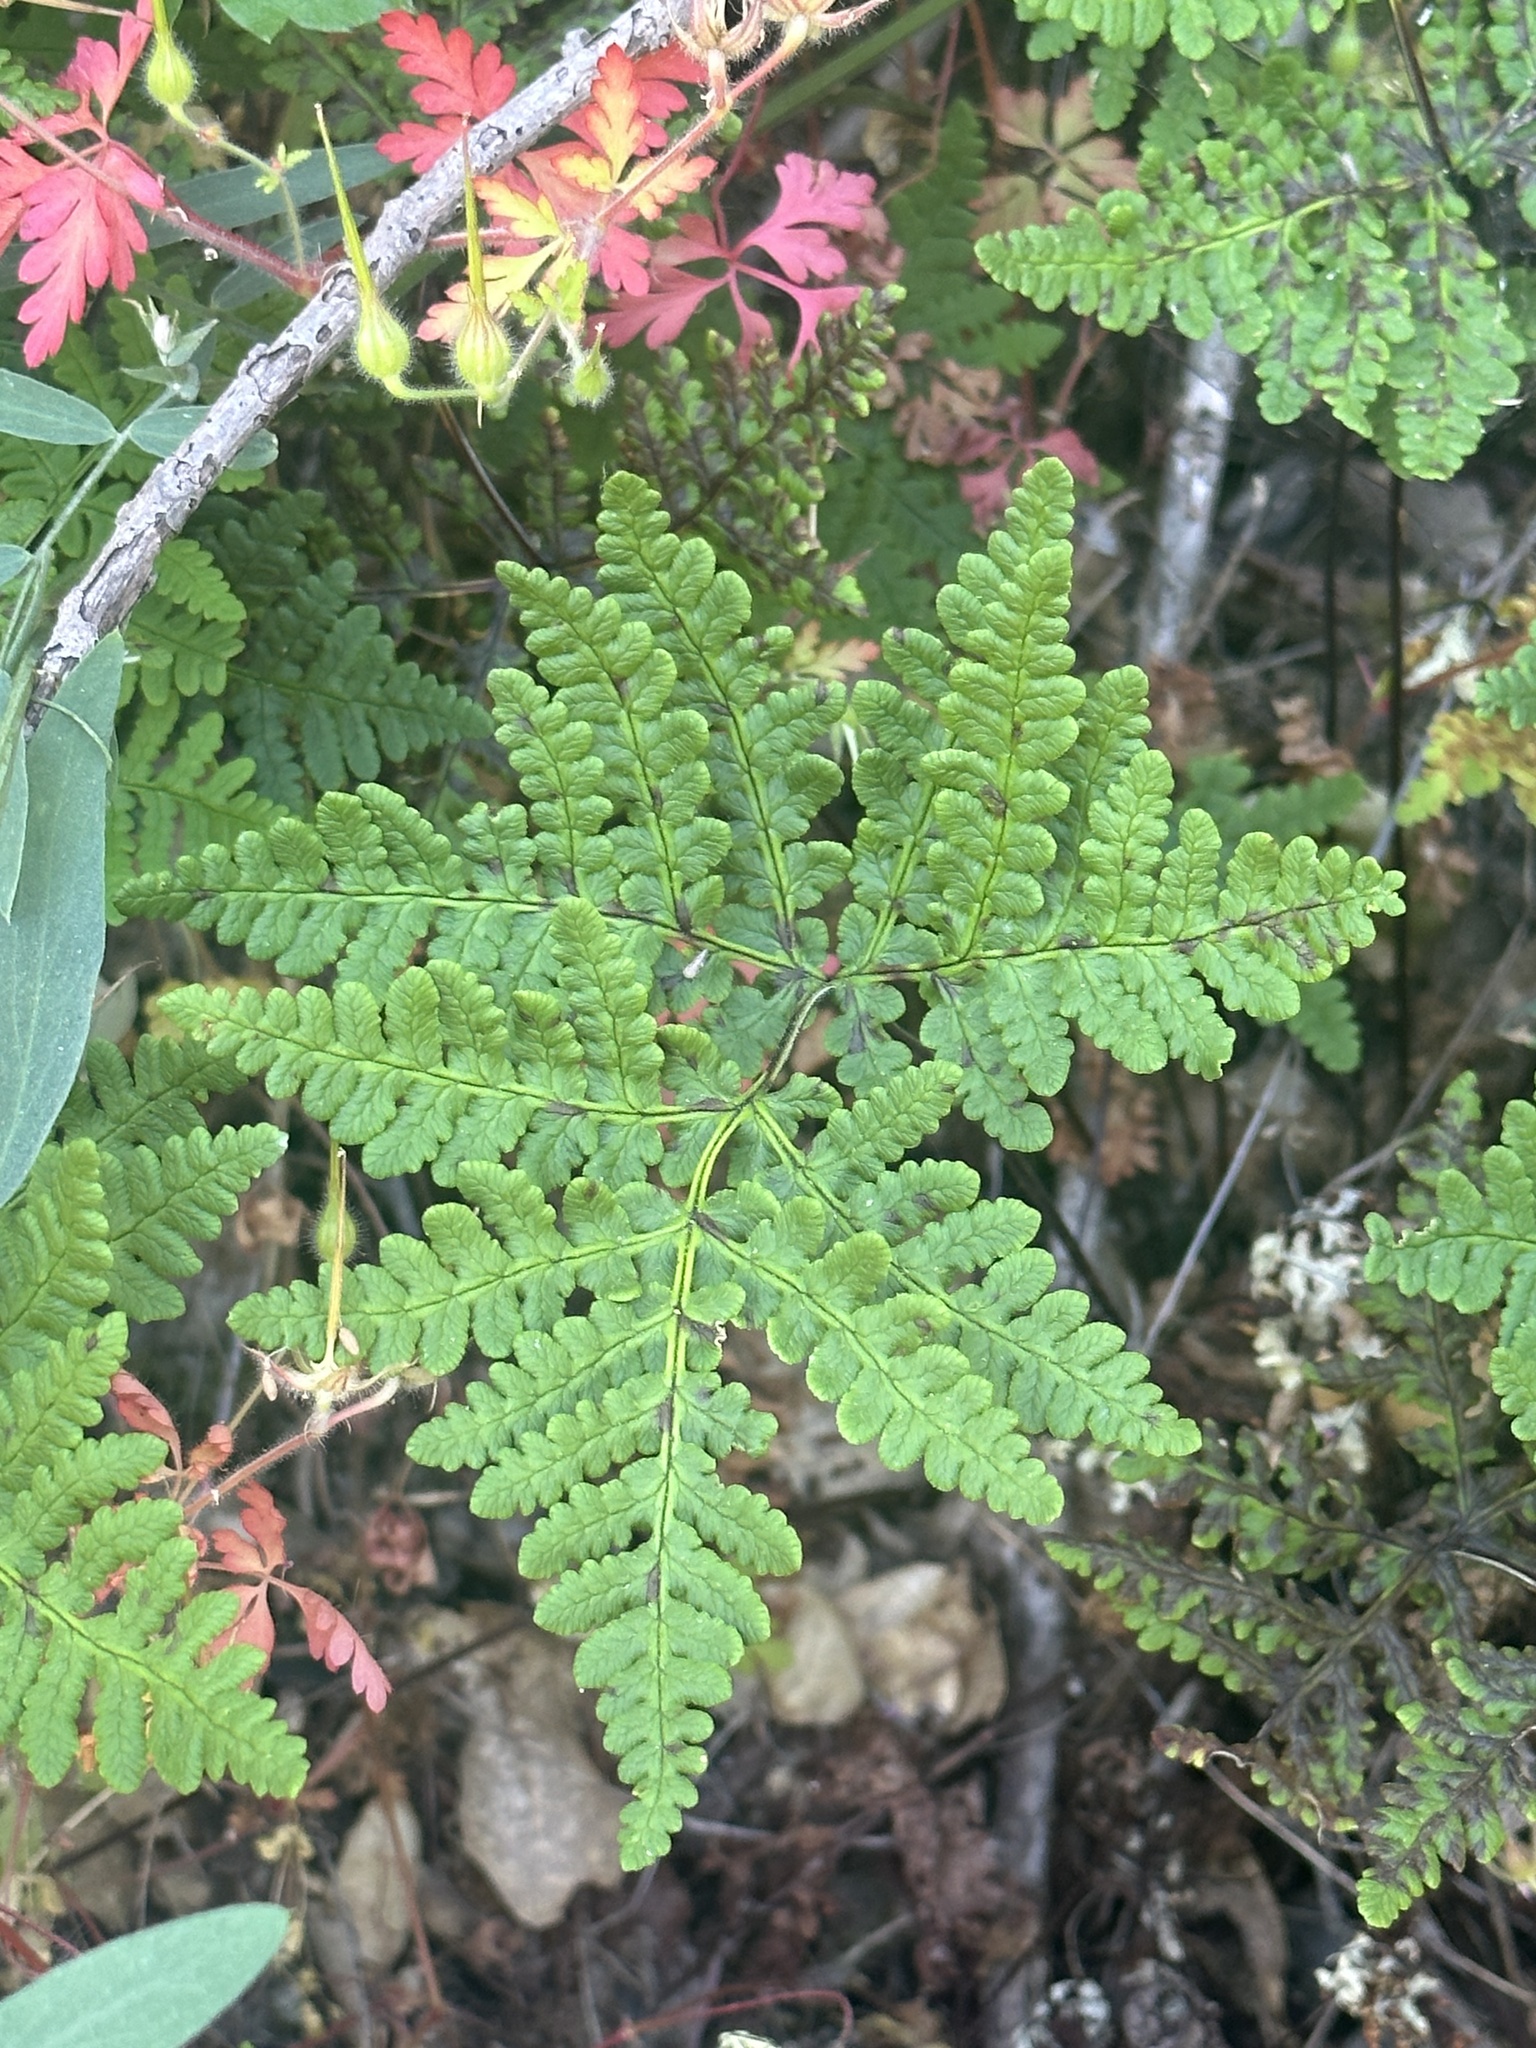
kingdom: Plantae
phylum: Tracheophyta
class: Polypodiopsida
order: Polypodiales
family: Pteridaceae
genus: Pentagramma
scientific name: Pentagramma triangularis
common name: Gold fern
